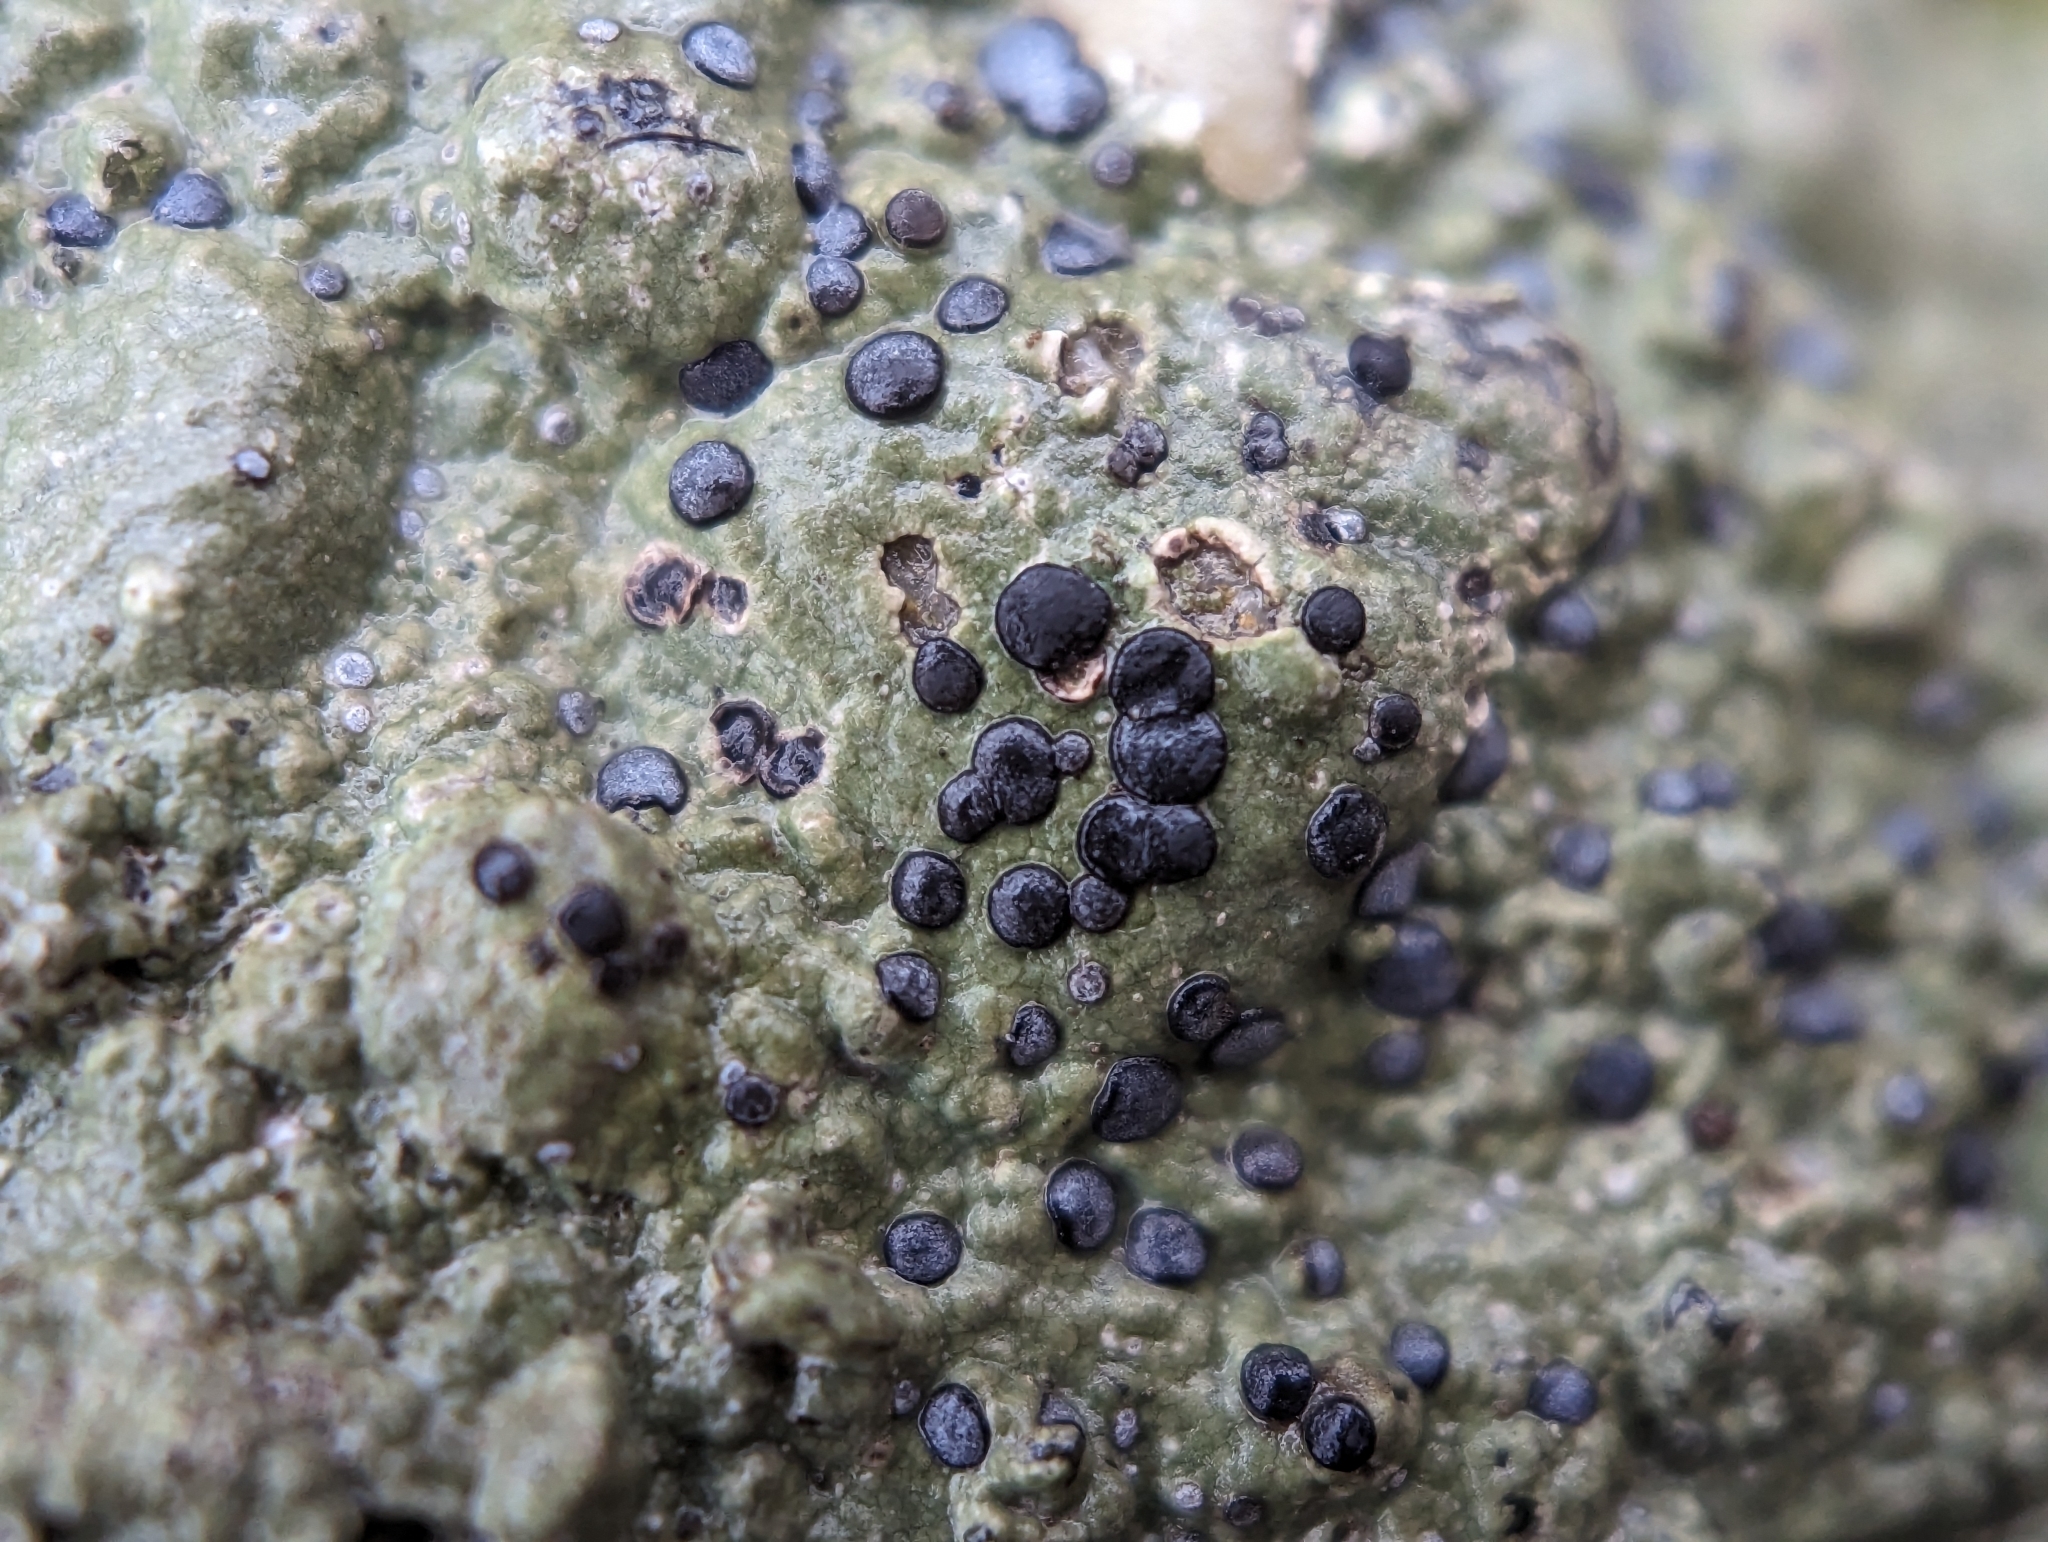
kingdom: Fungi
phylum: Ascomycota
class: Lecanoromycetes
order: Lecideales
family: Lecideaceae
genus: Porpidia
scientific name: Porpidia albocaerulescens
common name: Smokey-eyed boulder lichen
